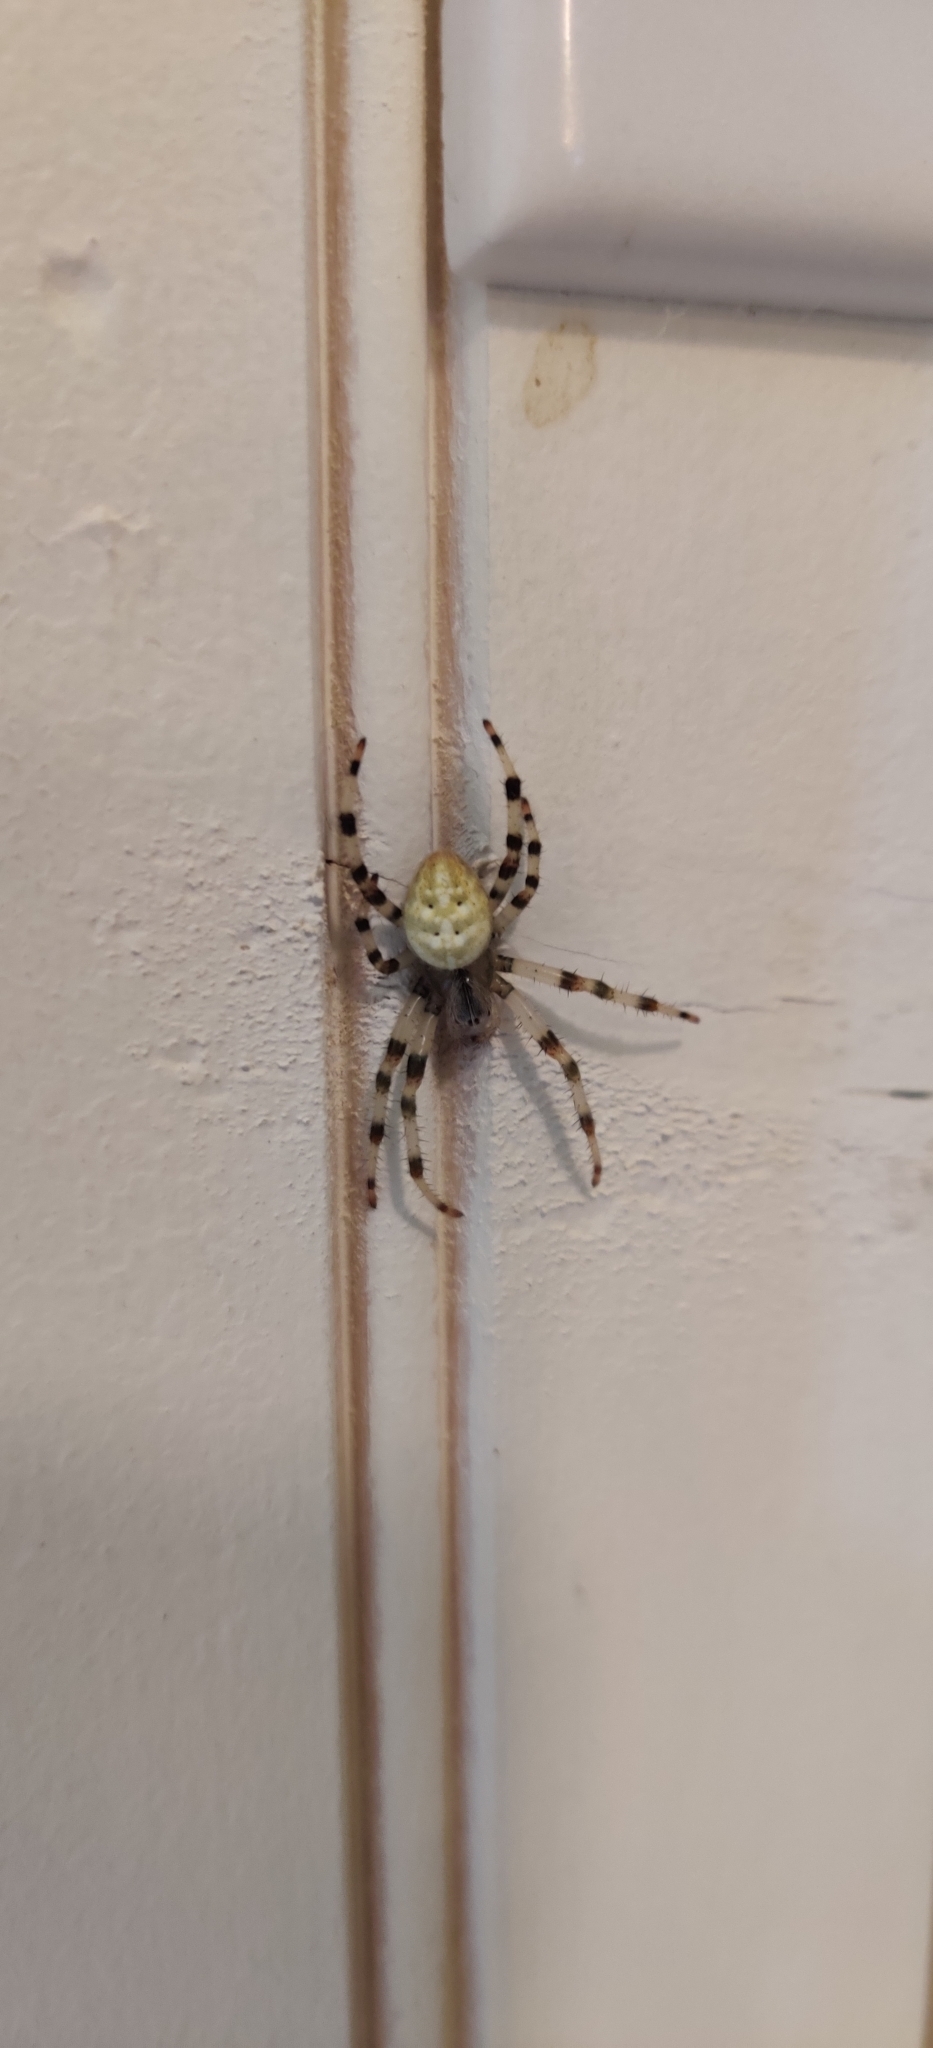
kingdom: Animalia
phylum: Arthropoda
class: Arachnida
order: Araneae
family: Araneidae
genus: Araneus
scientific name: Araneus trifolium
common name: Shamrock orbweaver
